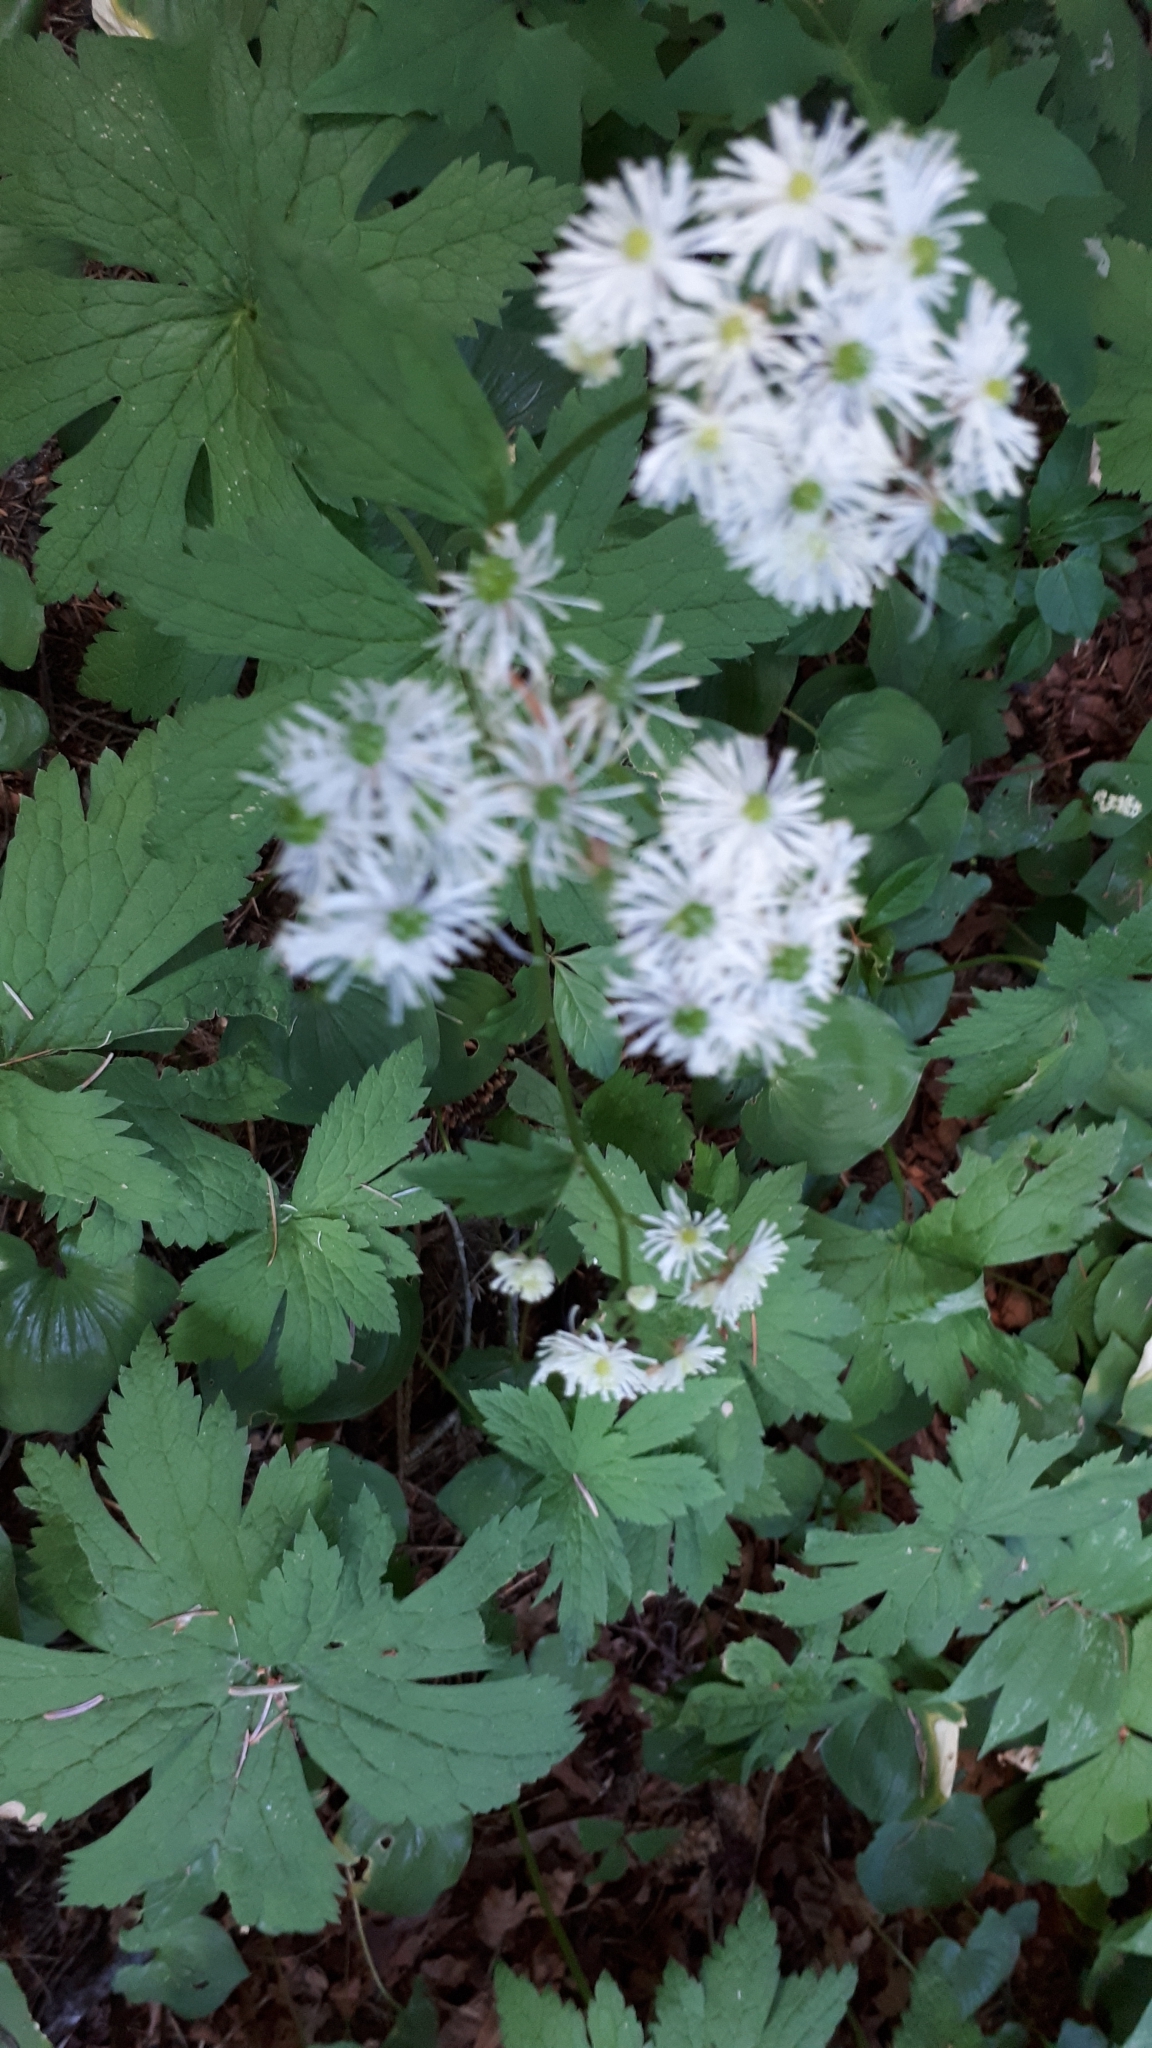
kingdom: Plantae
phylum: Tracheophyta
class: Magnoliopsida
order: Ranunculales
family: Ranunculaceae
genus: Trautvetteria
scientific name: Trautvetteria carolinensis
